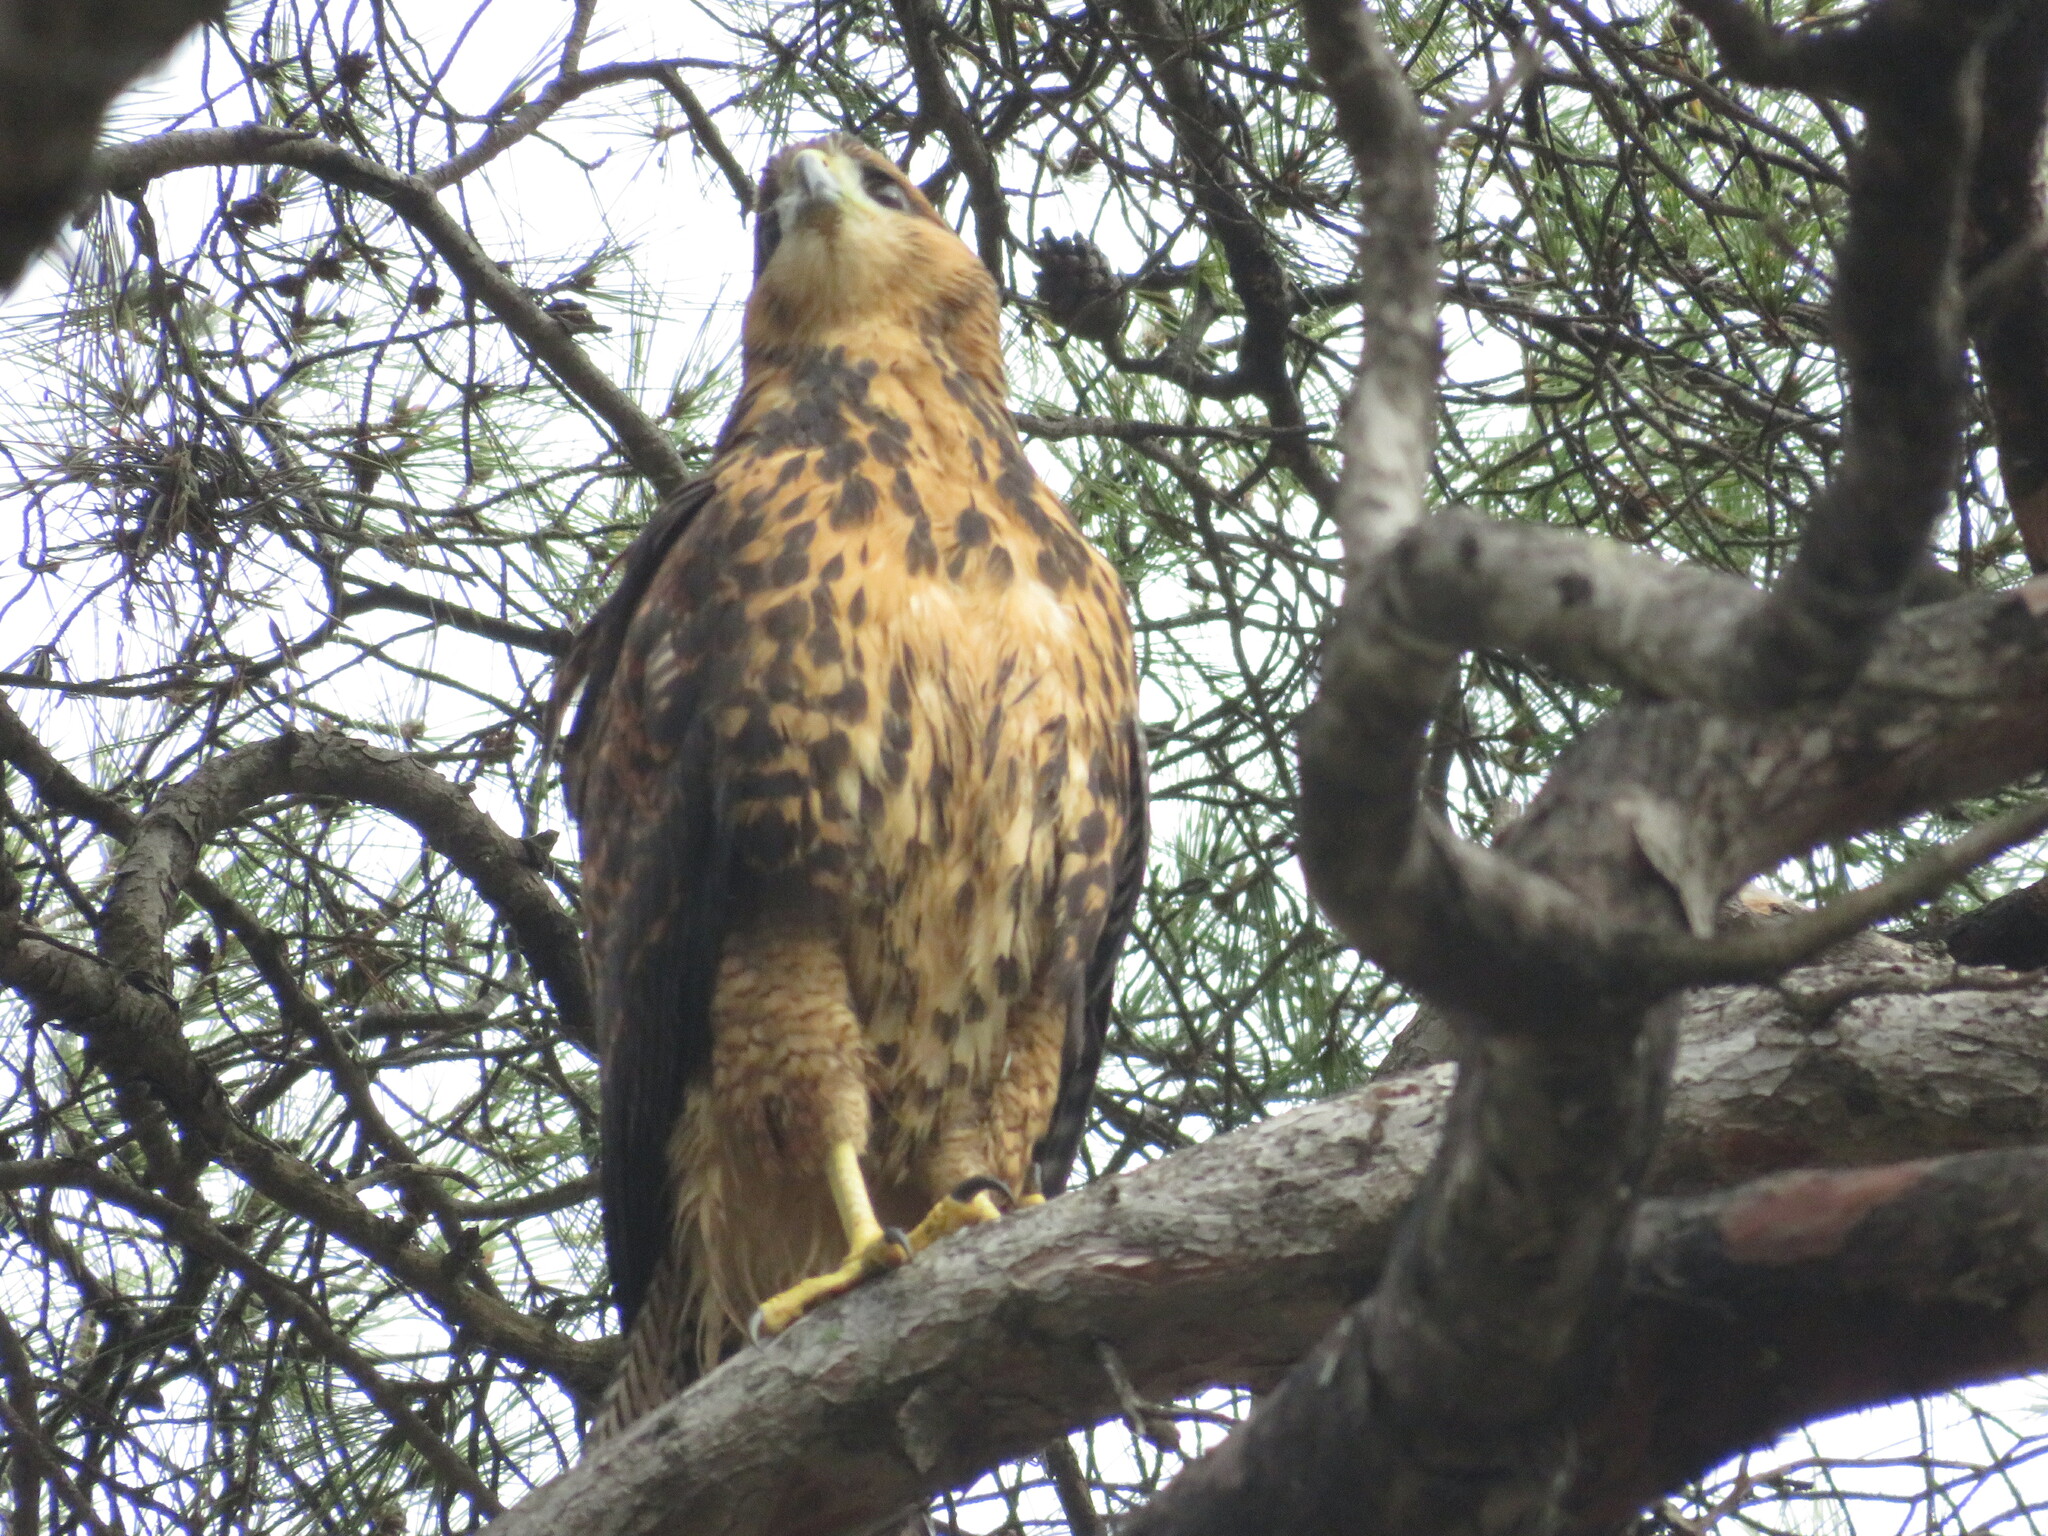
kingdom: Animalia
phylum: Chordata
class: Aves
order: Accipitriformes
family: Accipitridae
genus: Parabuteo
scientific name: Parabuteo unicinctus
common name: Harris's hawk
